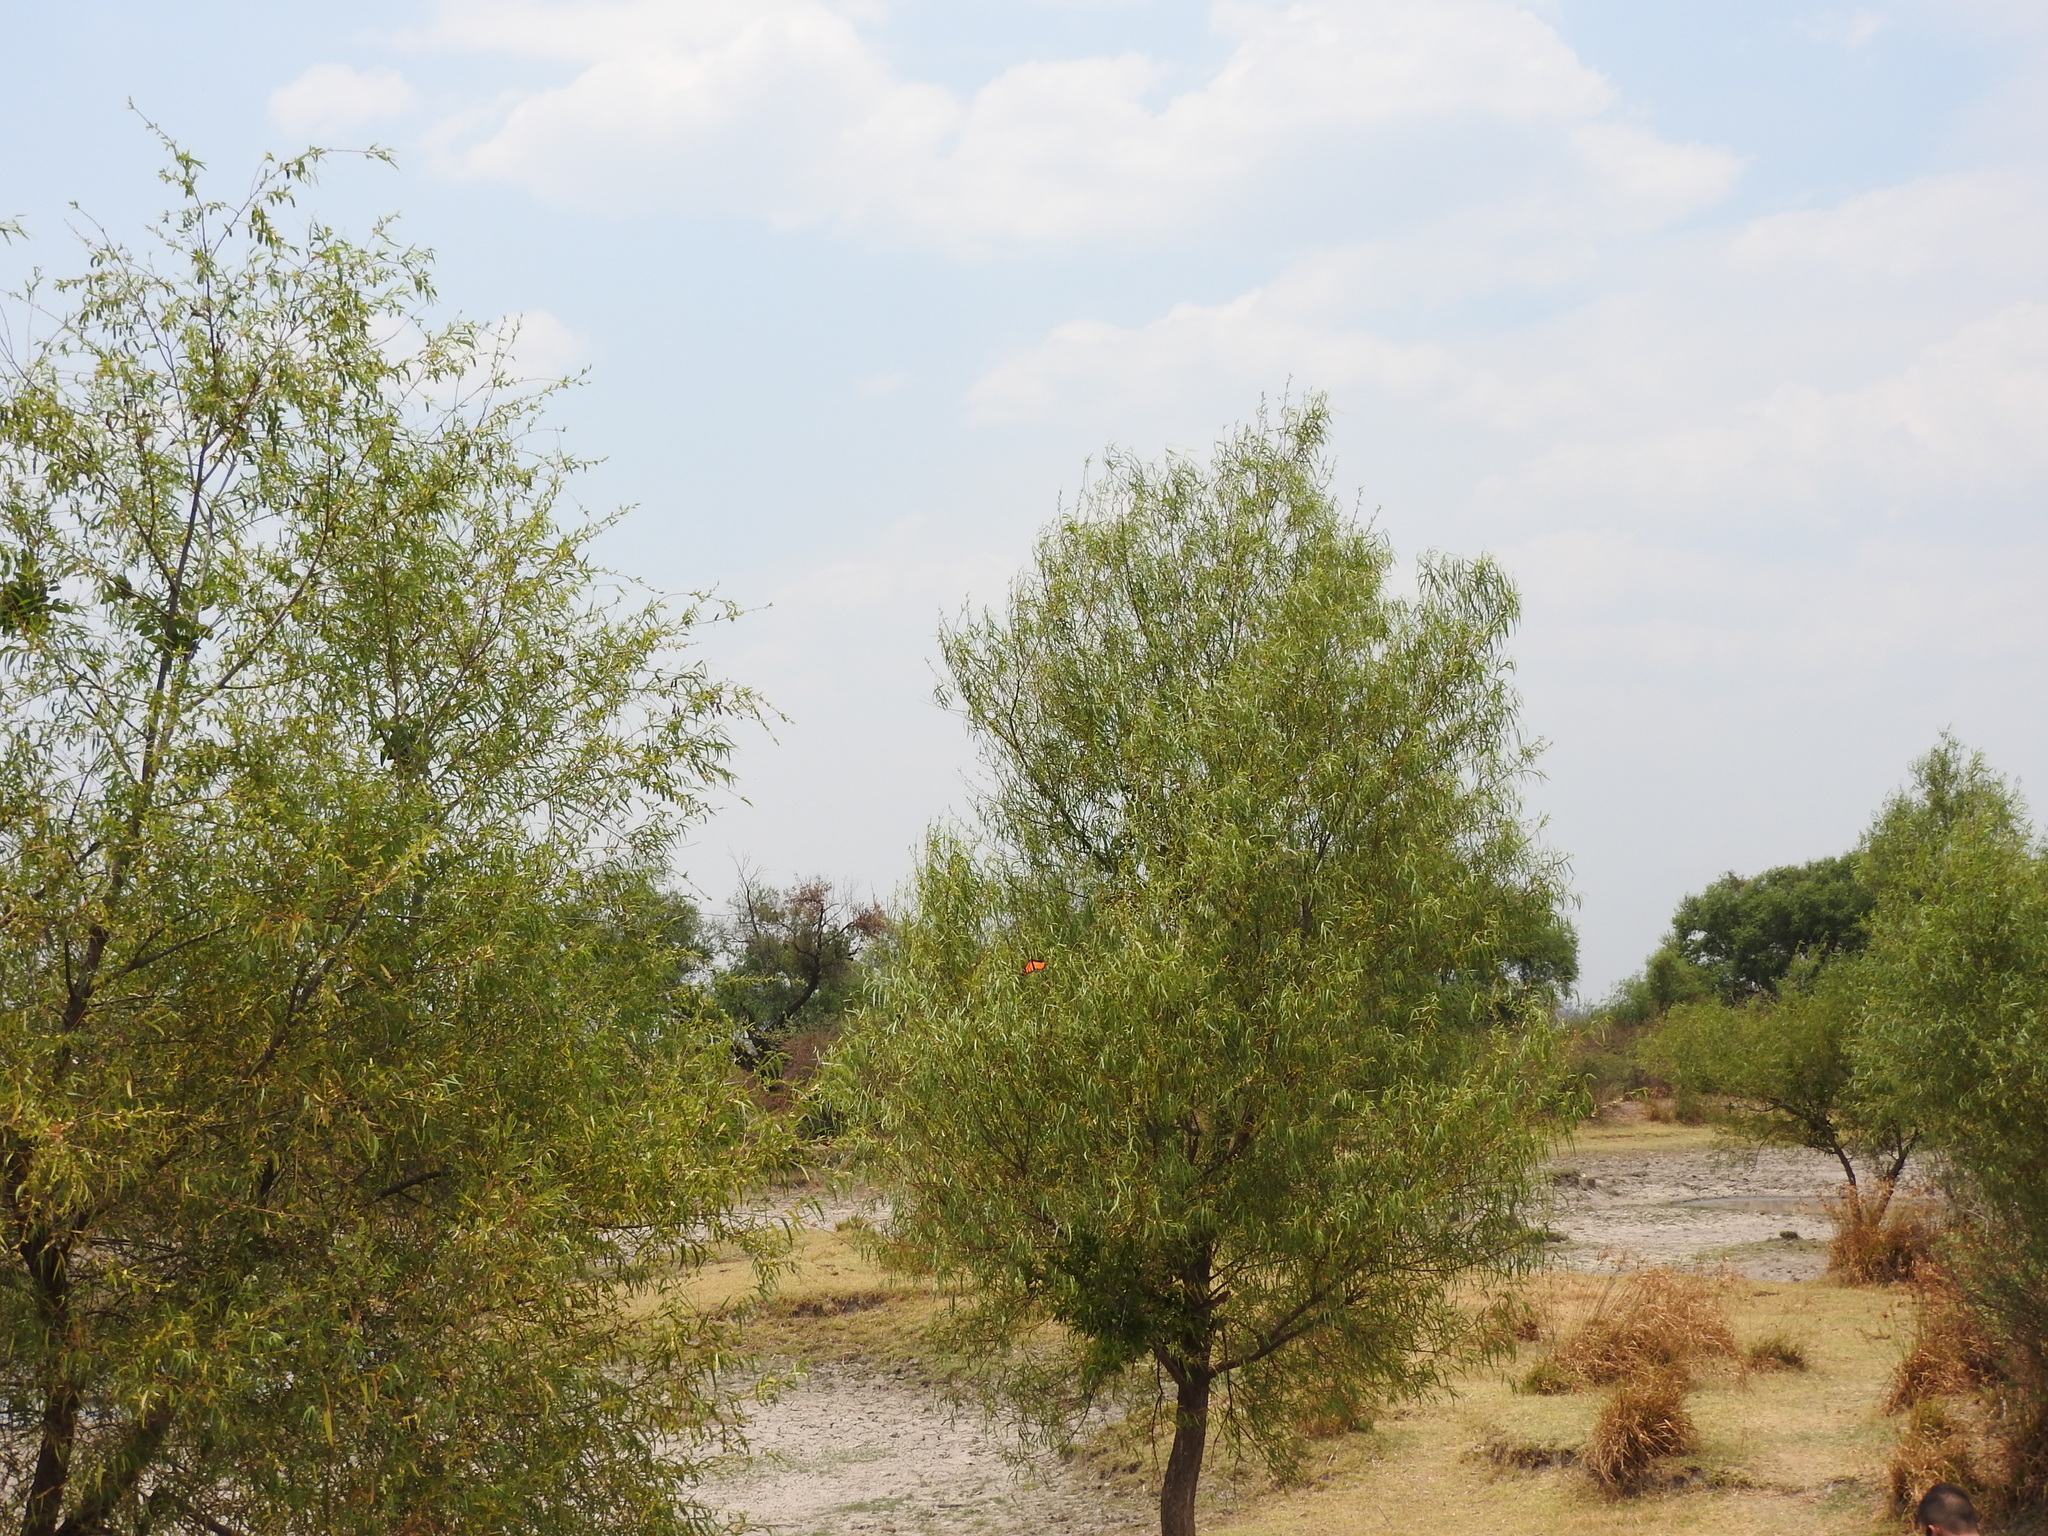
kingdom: Plantae
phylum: Tracheophyta
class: Magnoliopsida
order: Malpighiales
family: Salicaceae
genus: Salix
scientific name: Salix humboldtiana
